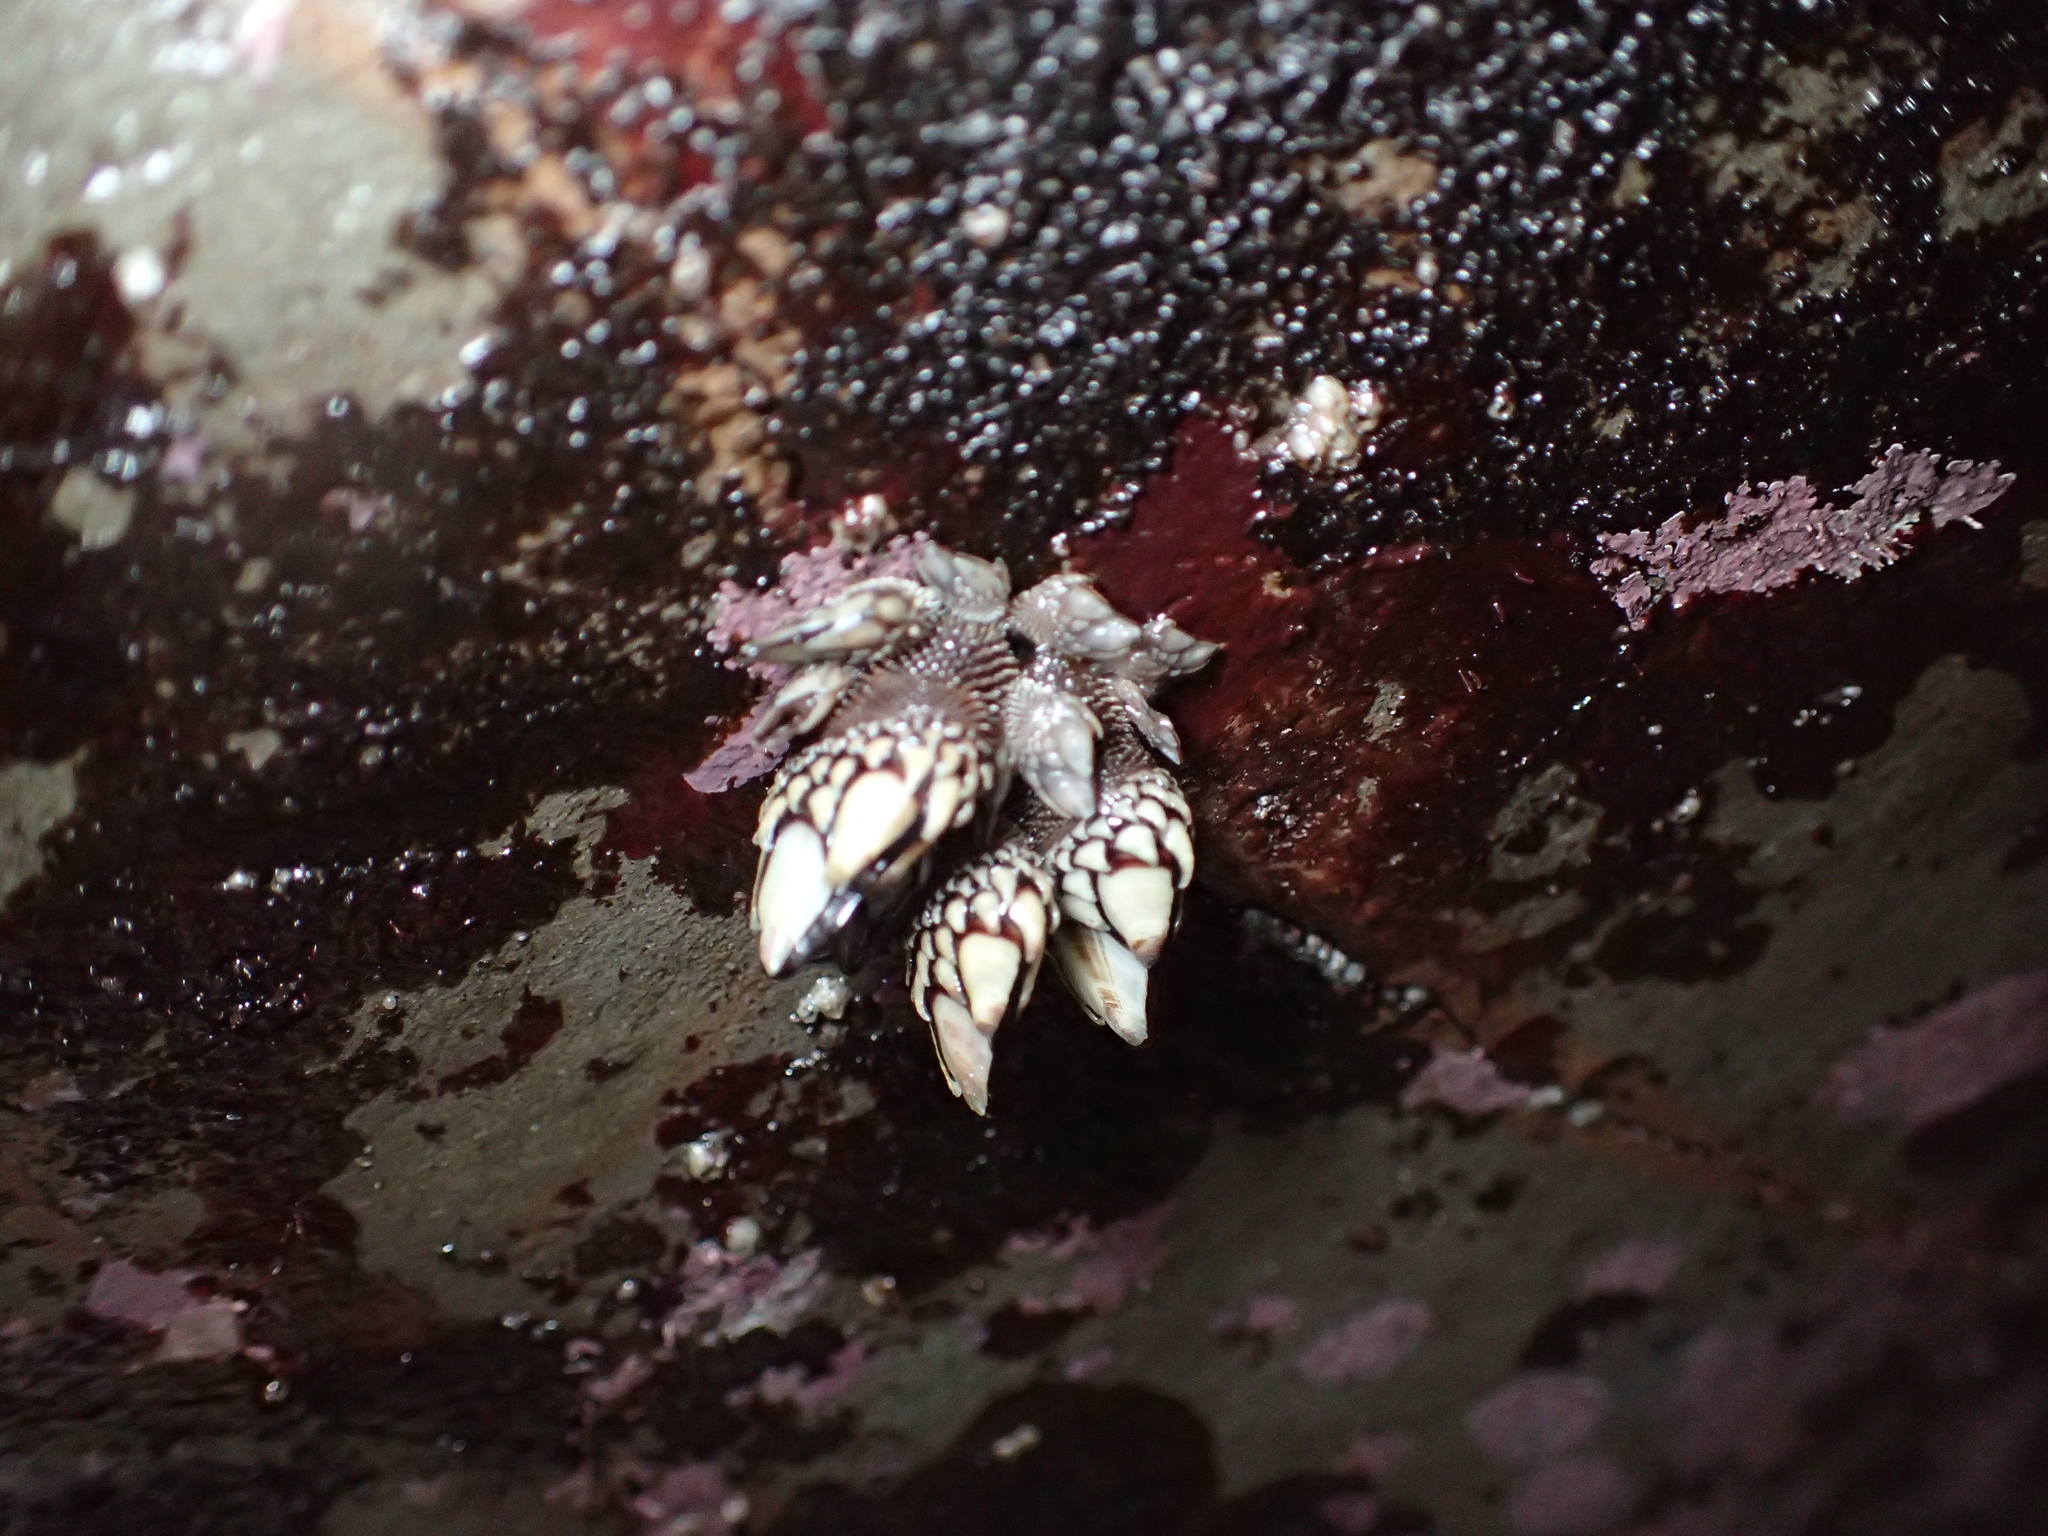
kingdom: Animalia
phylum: Arthropoda
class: Maxillopoda
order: Pedunculata
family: Pollicipedidae
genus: Pollicipes
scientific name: Pollicipes polymerus
